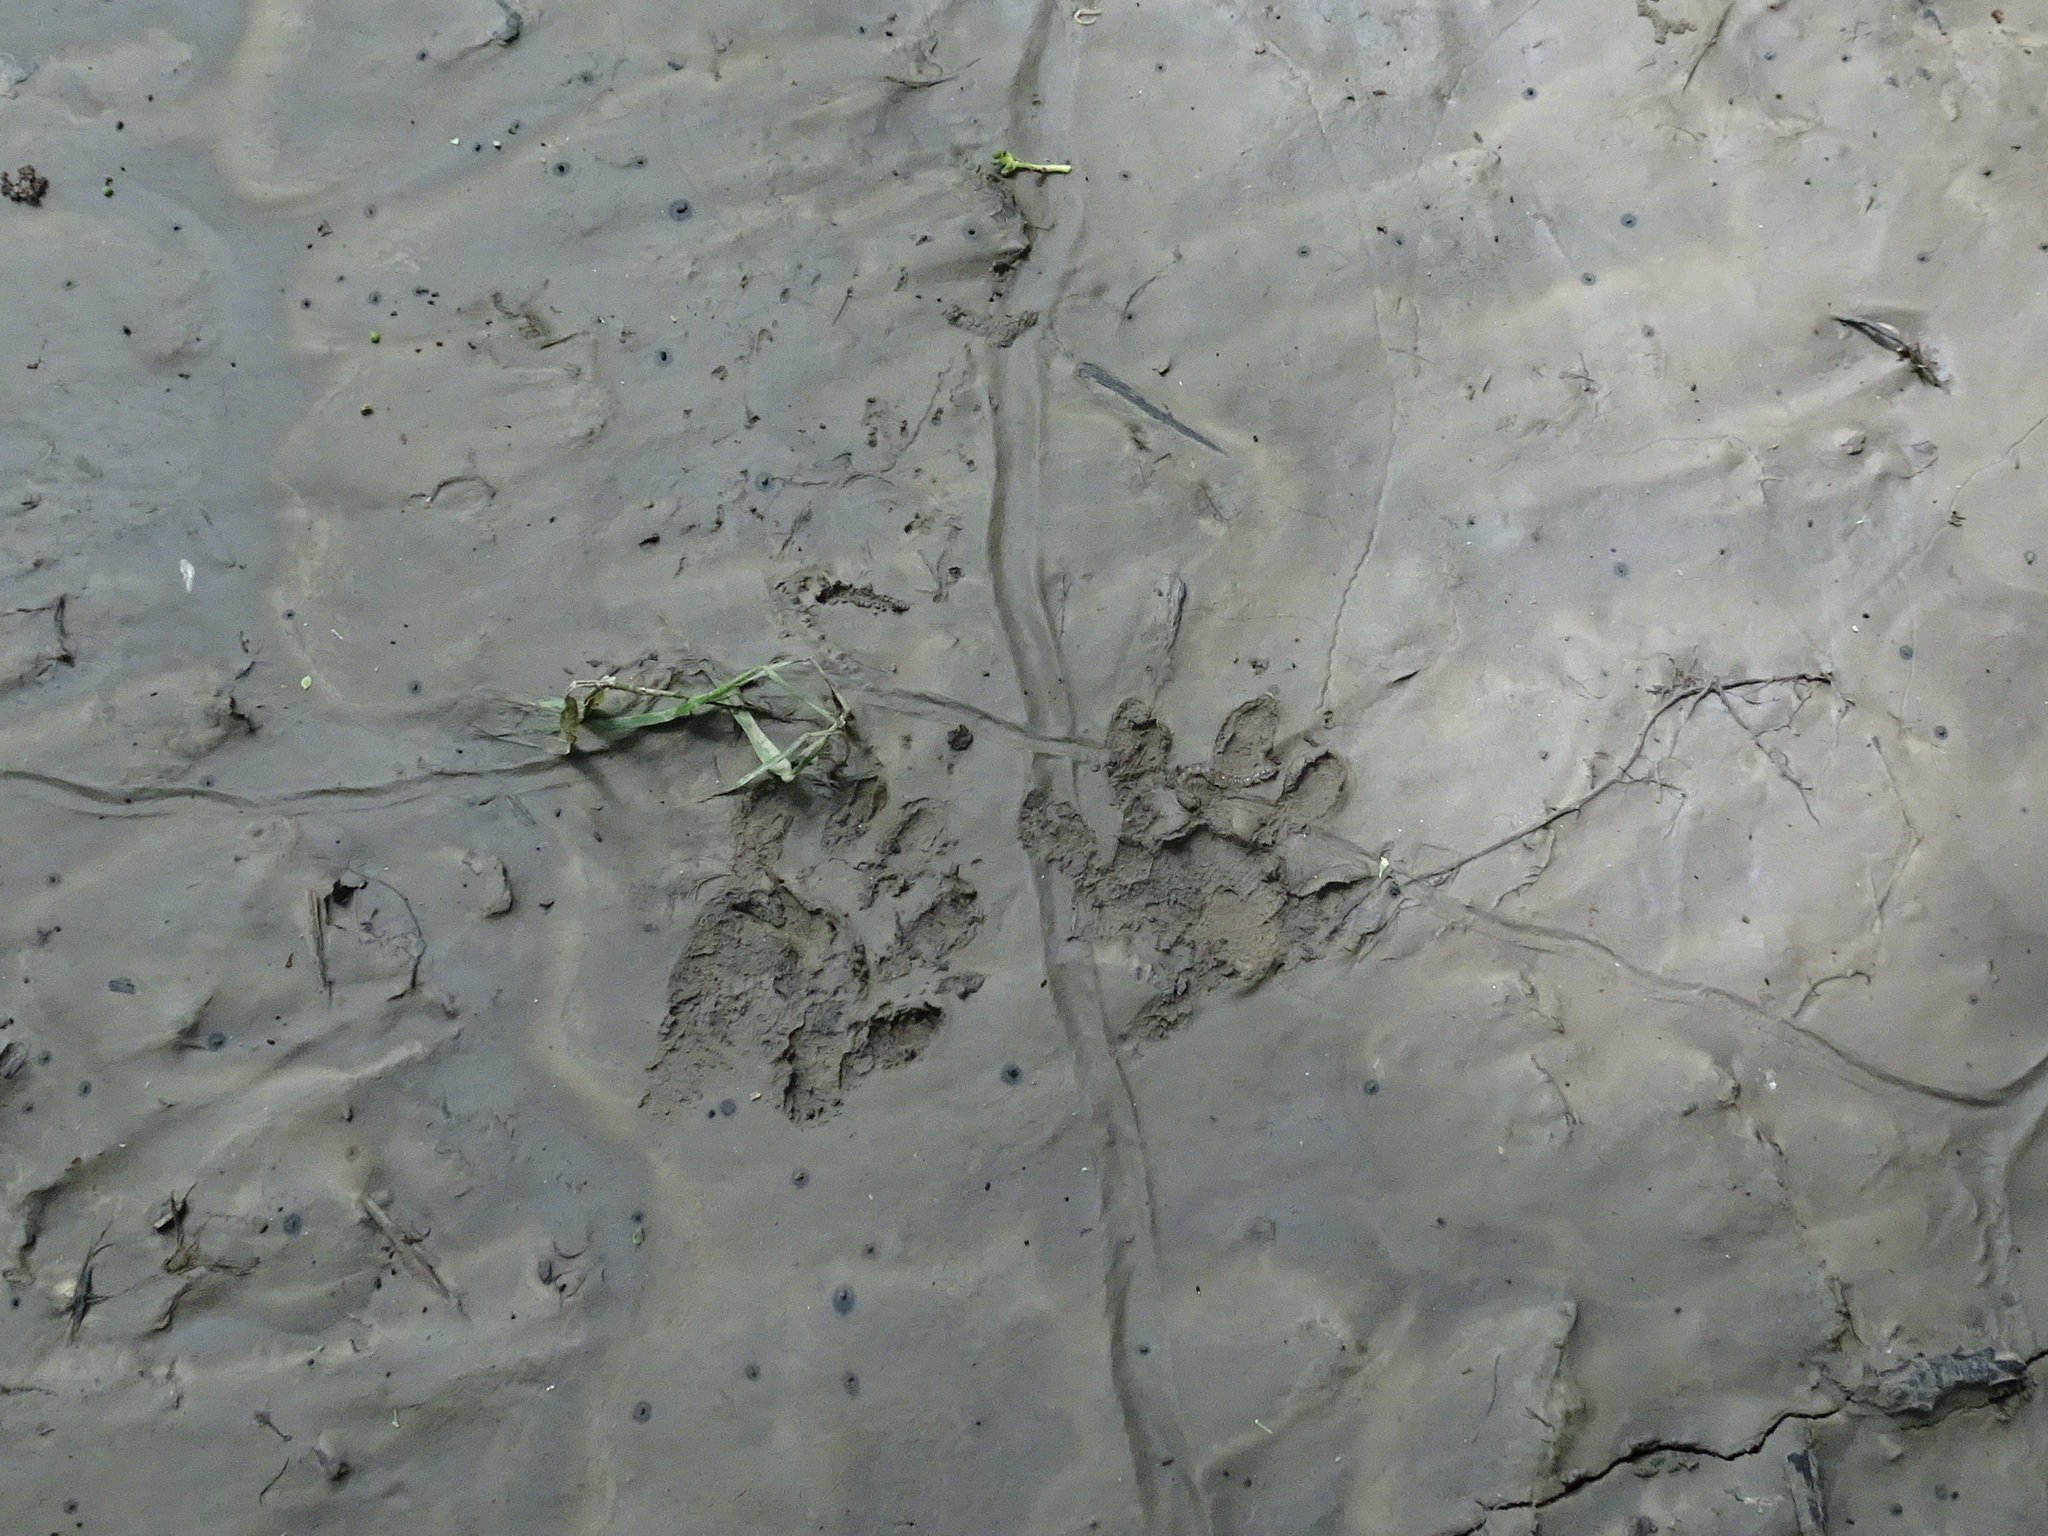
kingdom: Animalia
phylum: Chordata
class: Mammalia
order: Carnivora
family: Procyonidae
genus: Procyon
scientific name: Procyon lotor
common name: Raccoon
